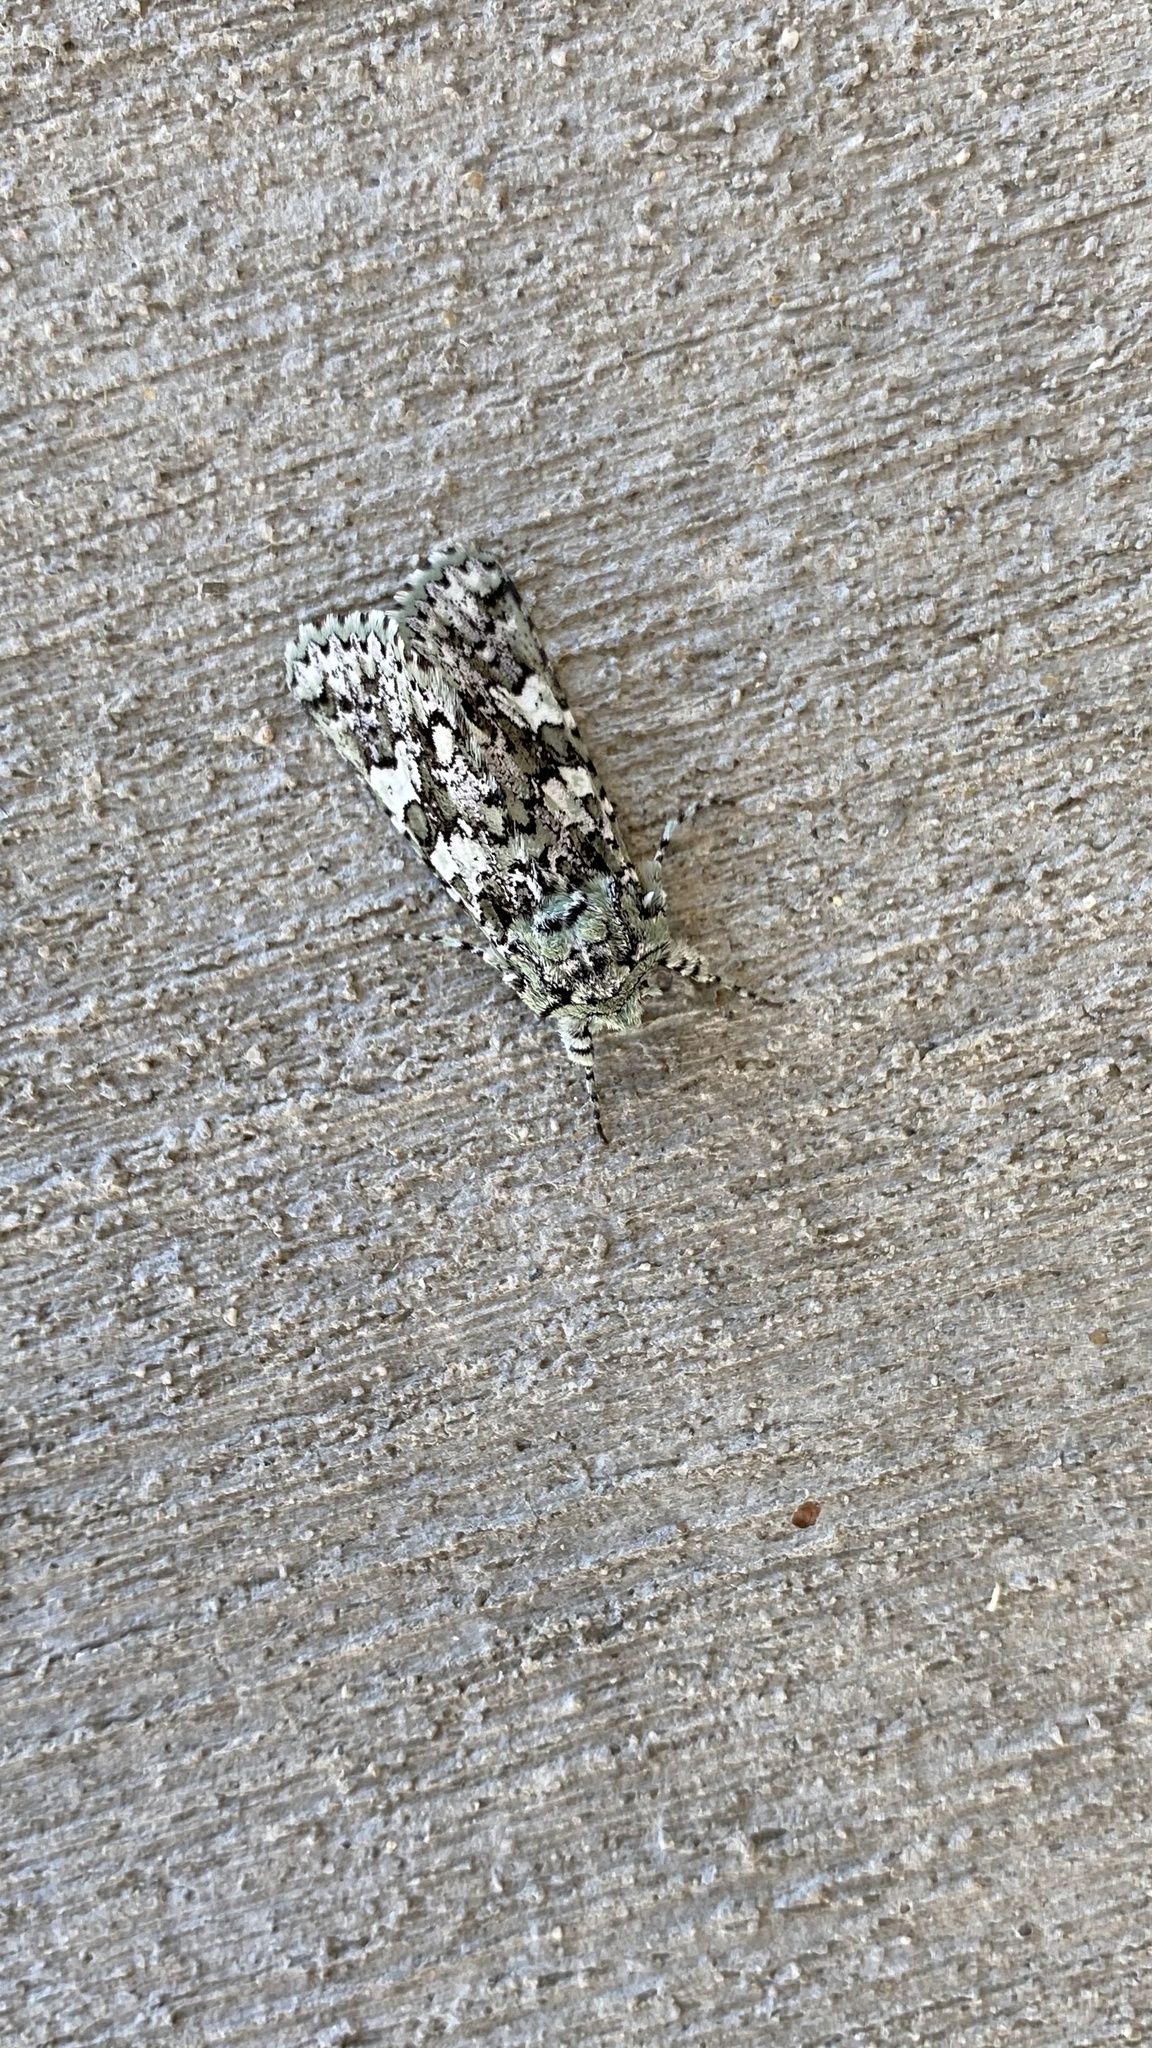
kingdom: Animalia
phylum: Arthropoda
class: Insecta
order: Lepidoptera
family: Noctuidae
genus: Feralia
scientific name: Feralia februalis
